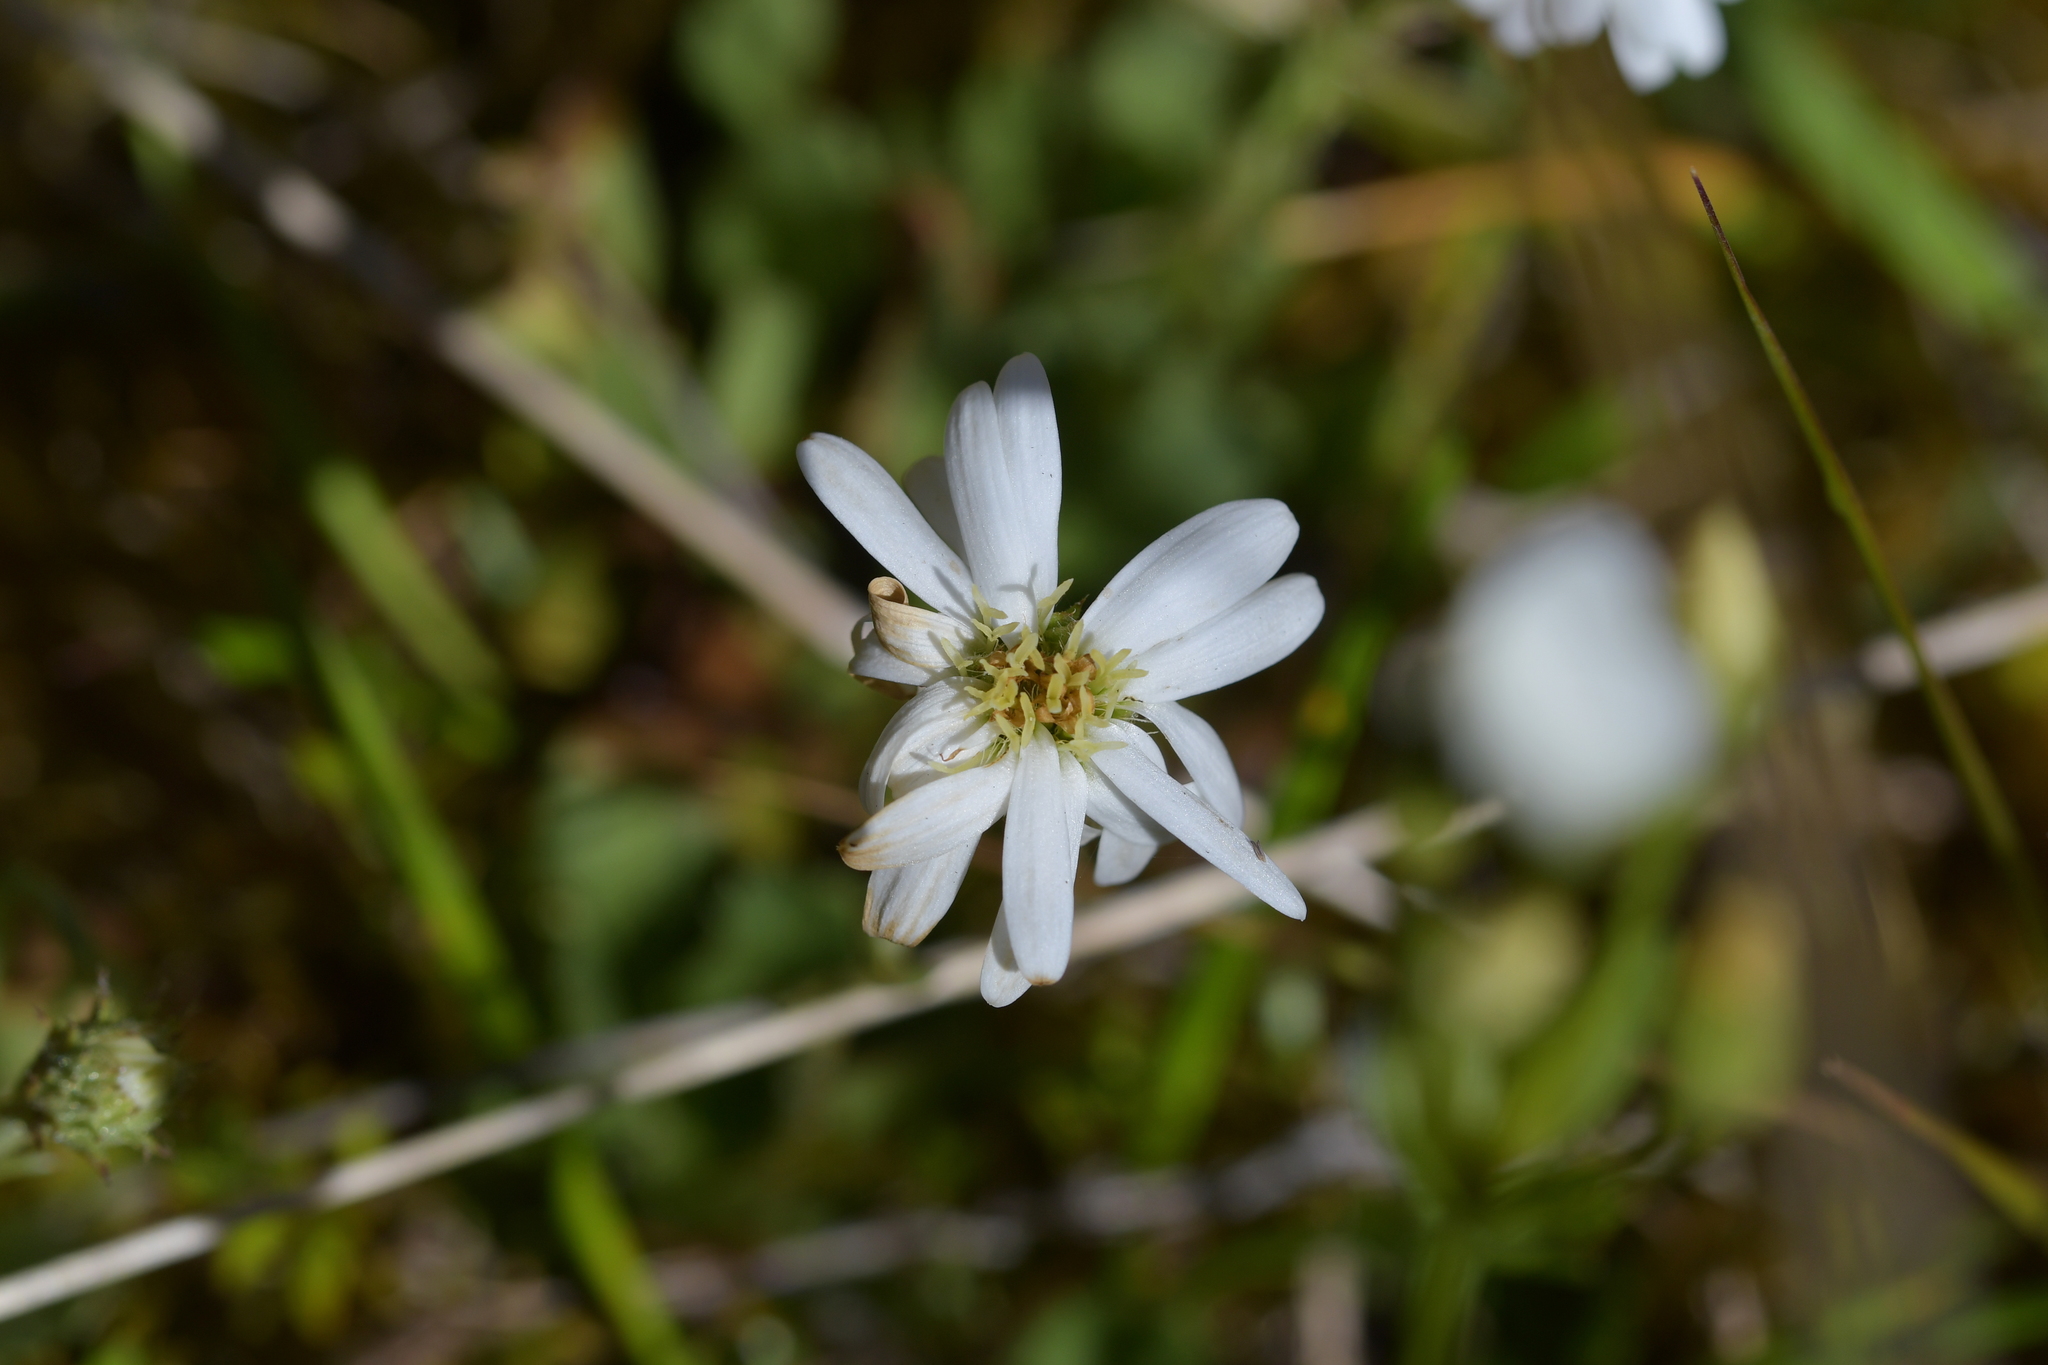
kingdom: Plantae
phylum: Tracheophyta
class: Magnoliopsida
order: Asterales
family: Asteraceae
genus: Celmisia
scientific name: Celmisia glandulosa
